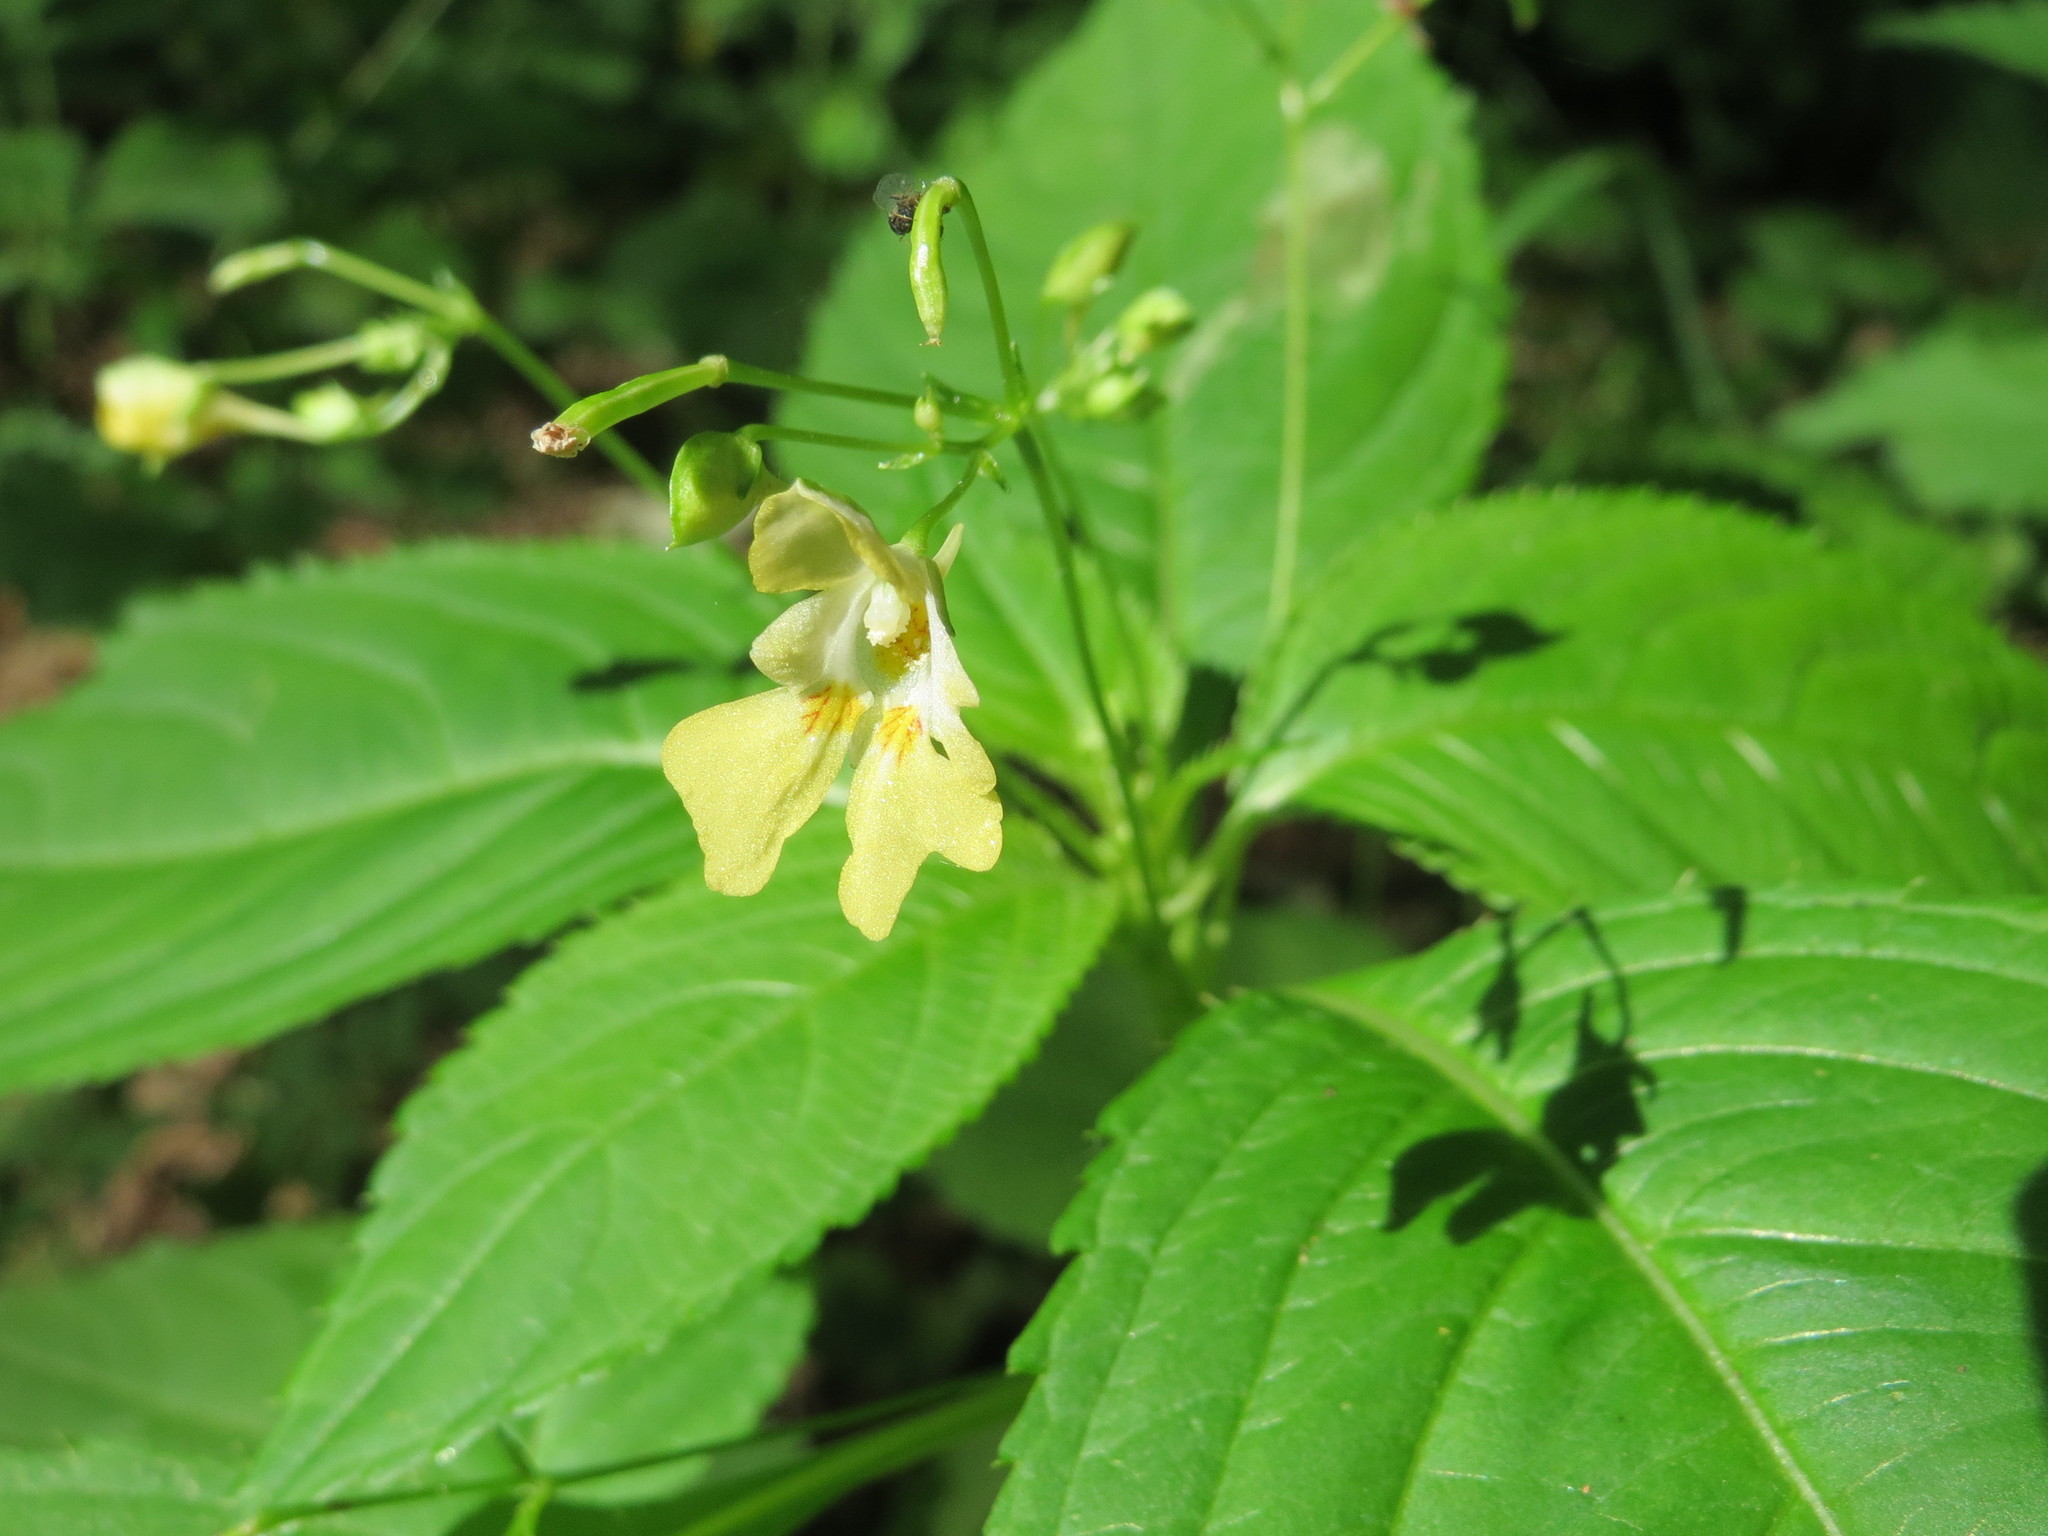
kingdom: Plantae
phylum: Tracheophyta
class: Magnoliopsida
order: Ericales
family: Balsaminaceae
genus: Impatiens
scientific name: Impatiens parviflora
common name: Small balsam
